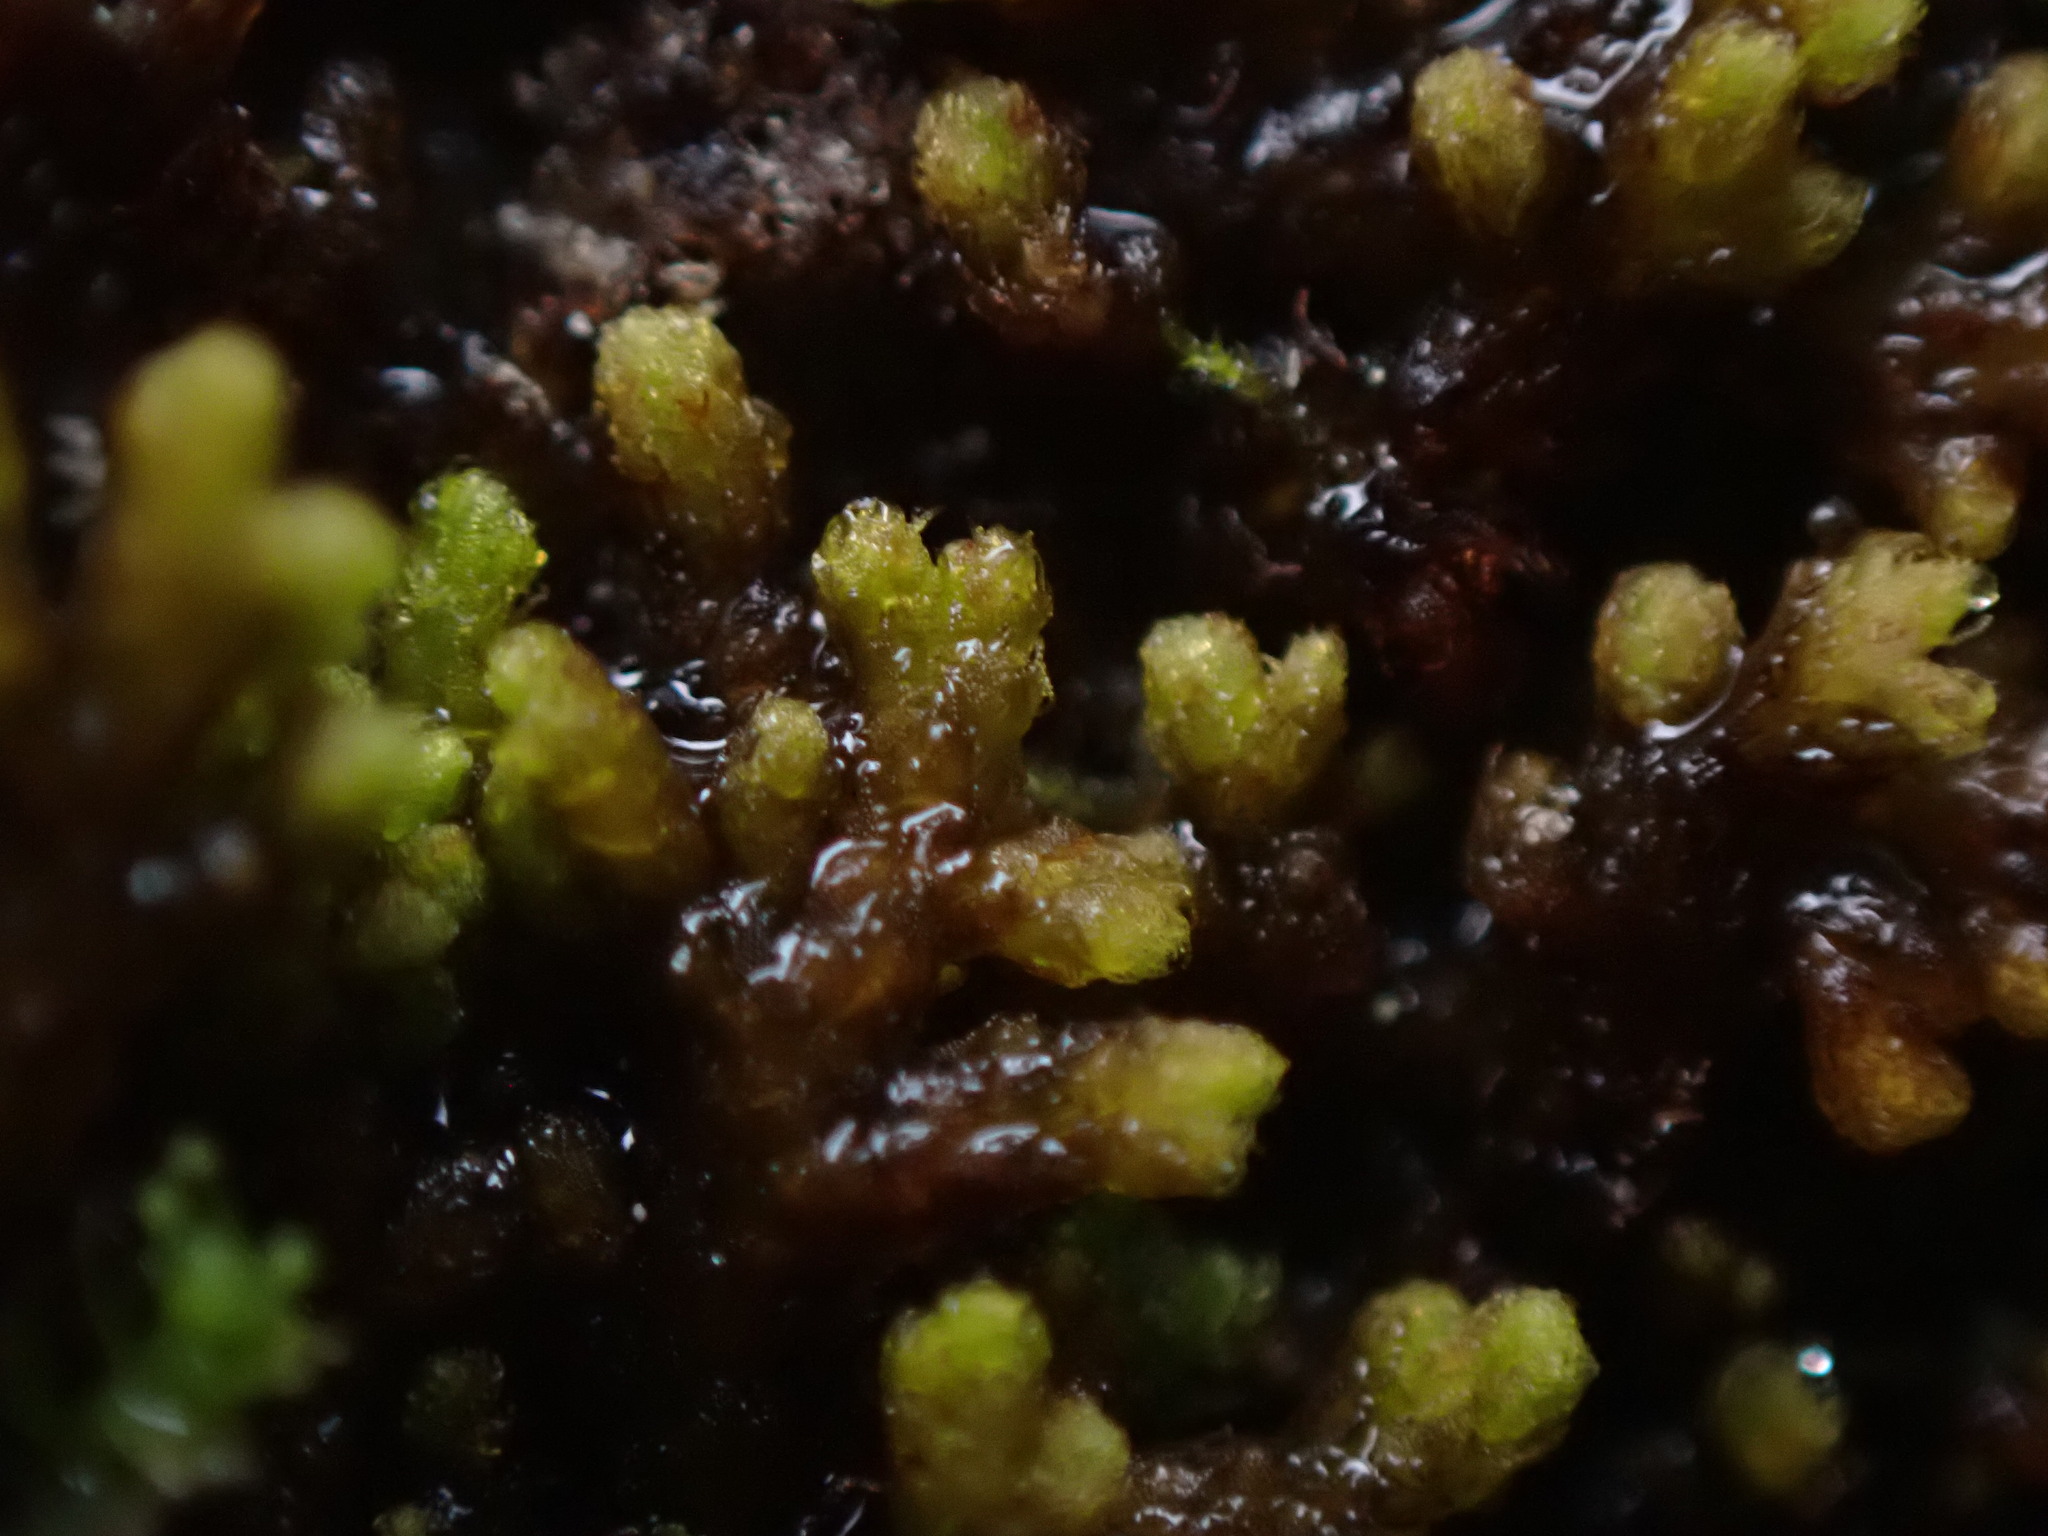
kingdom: Plantae
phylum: Marchantiophyta
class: Jungermanniopsida
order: Ptilidiales
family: Ptilidiaceae
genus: Ptilidium
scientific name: Ptilidium ciliare
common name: Ciliate fringewort
